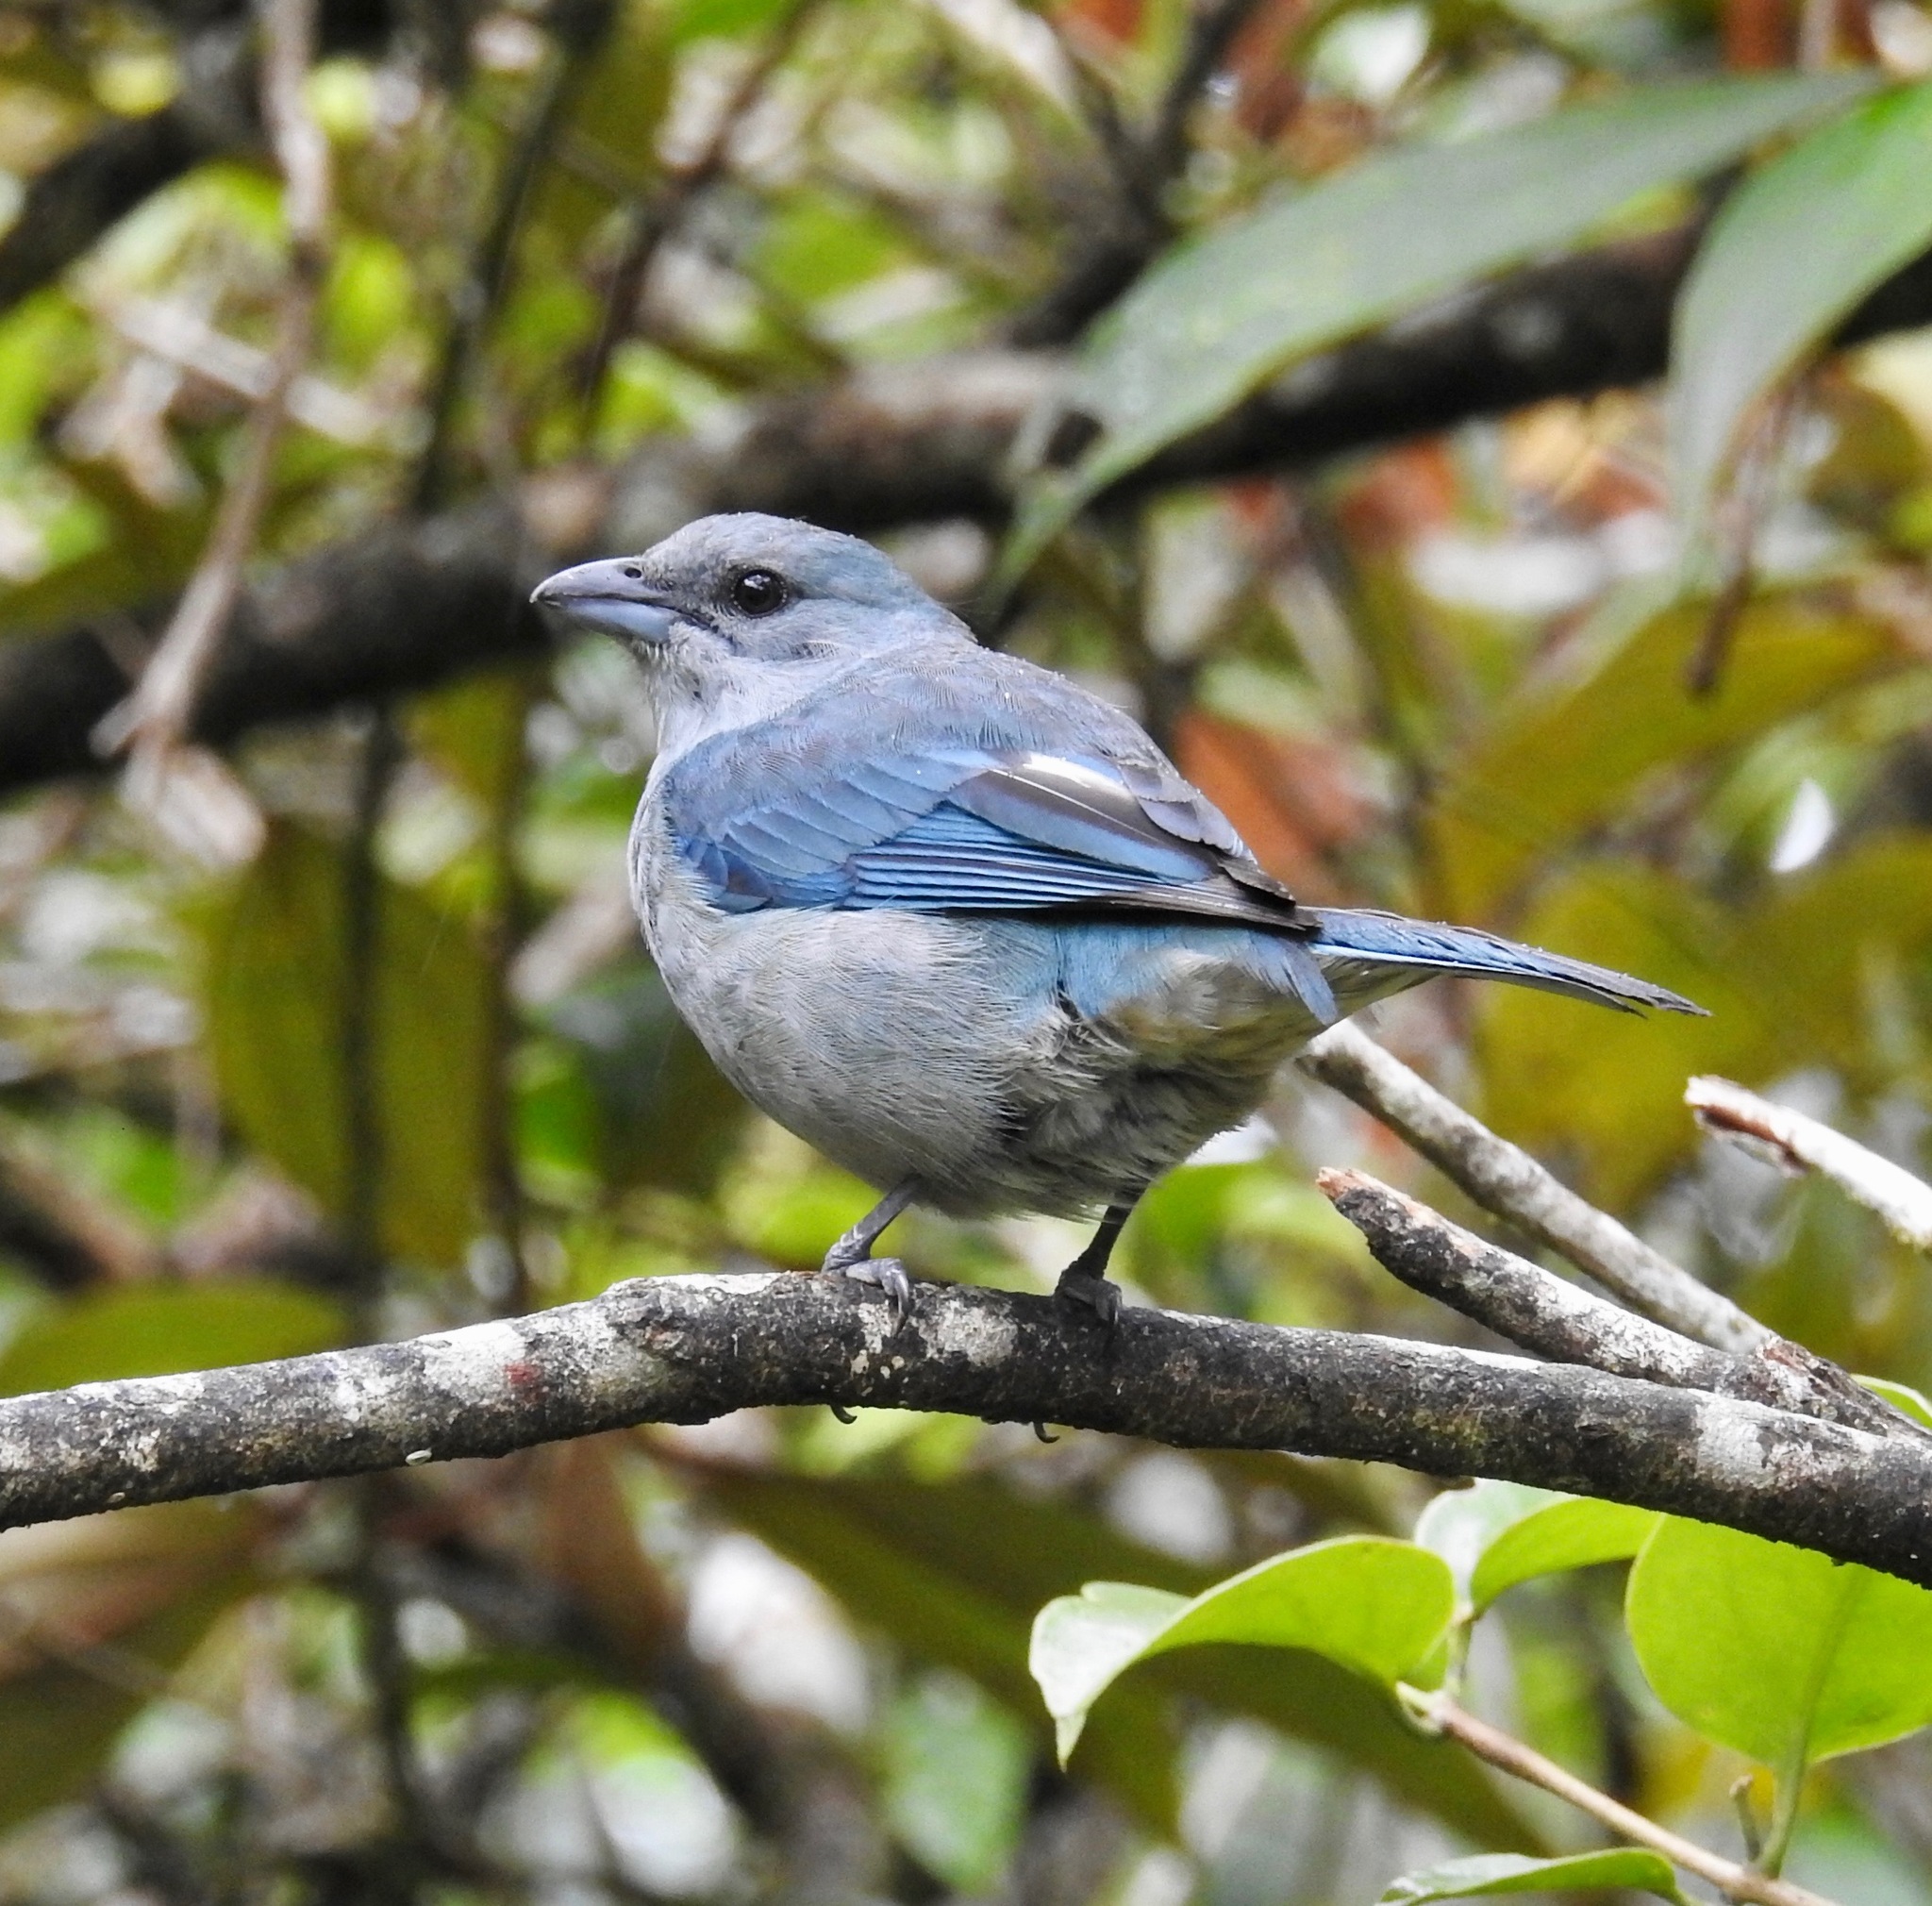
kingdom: Animalia
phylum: Chordata
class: Aves
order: Passeriformes
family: Thraupidae
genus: Thraupis
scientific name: Thraupis cyanoptera
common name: Azure-shouldered tanager
